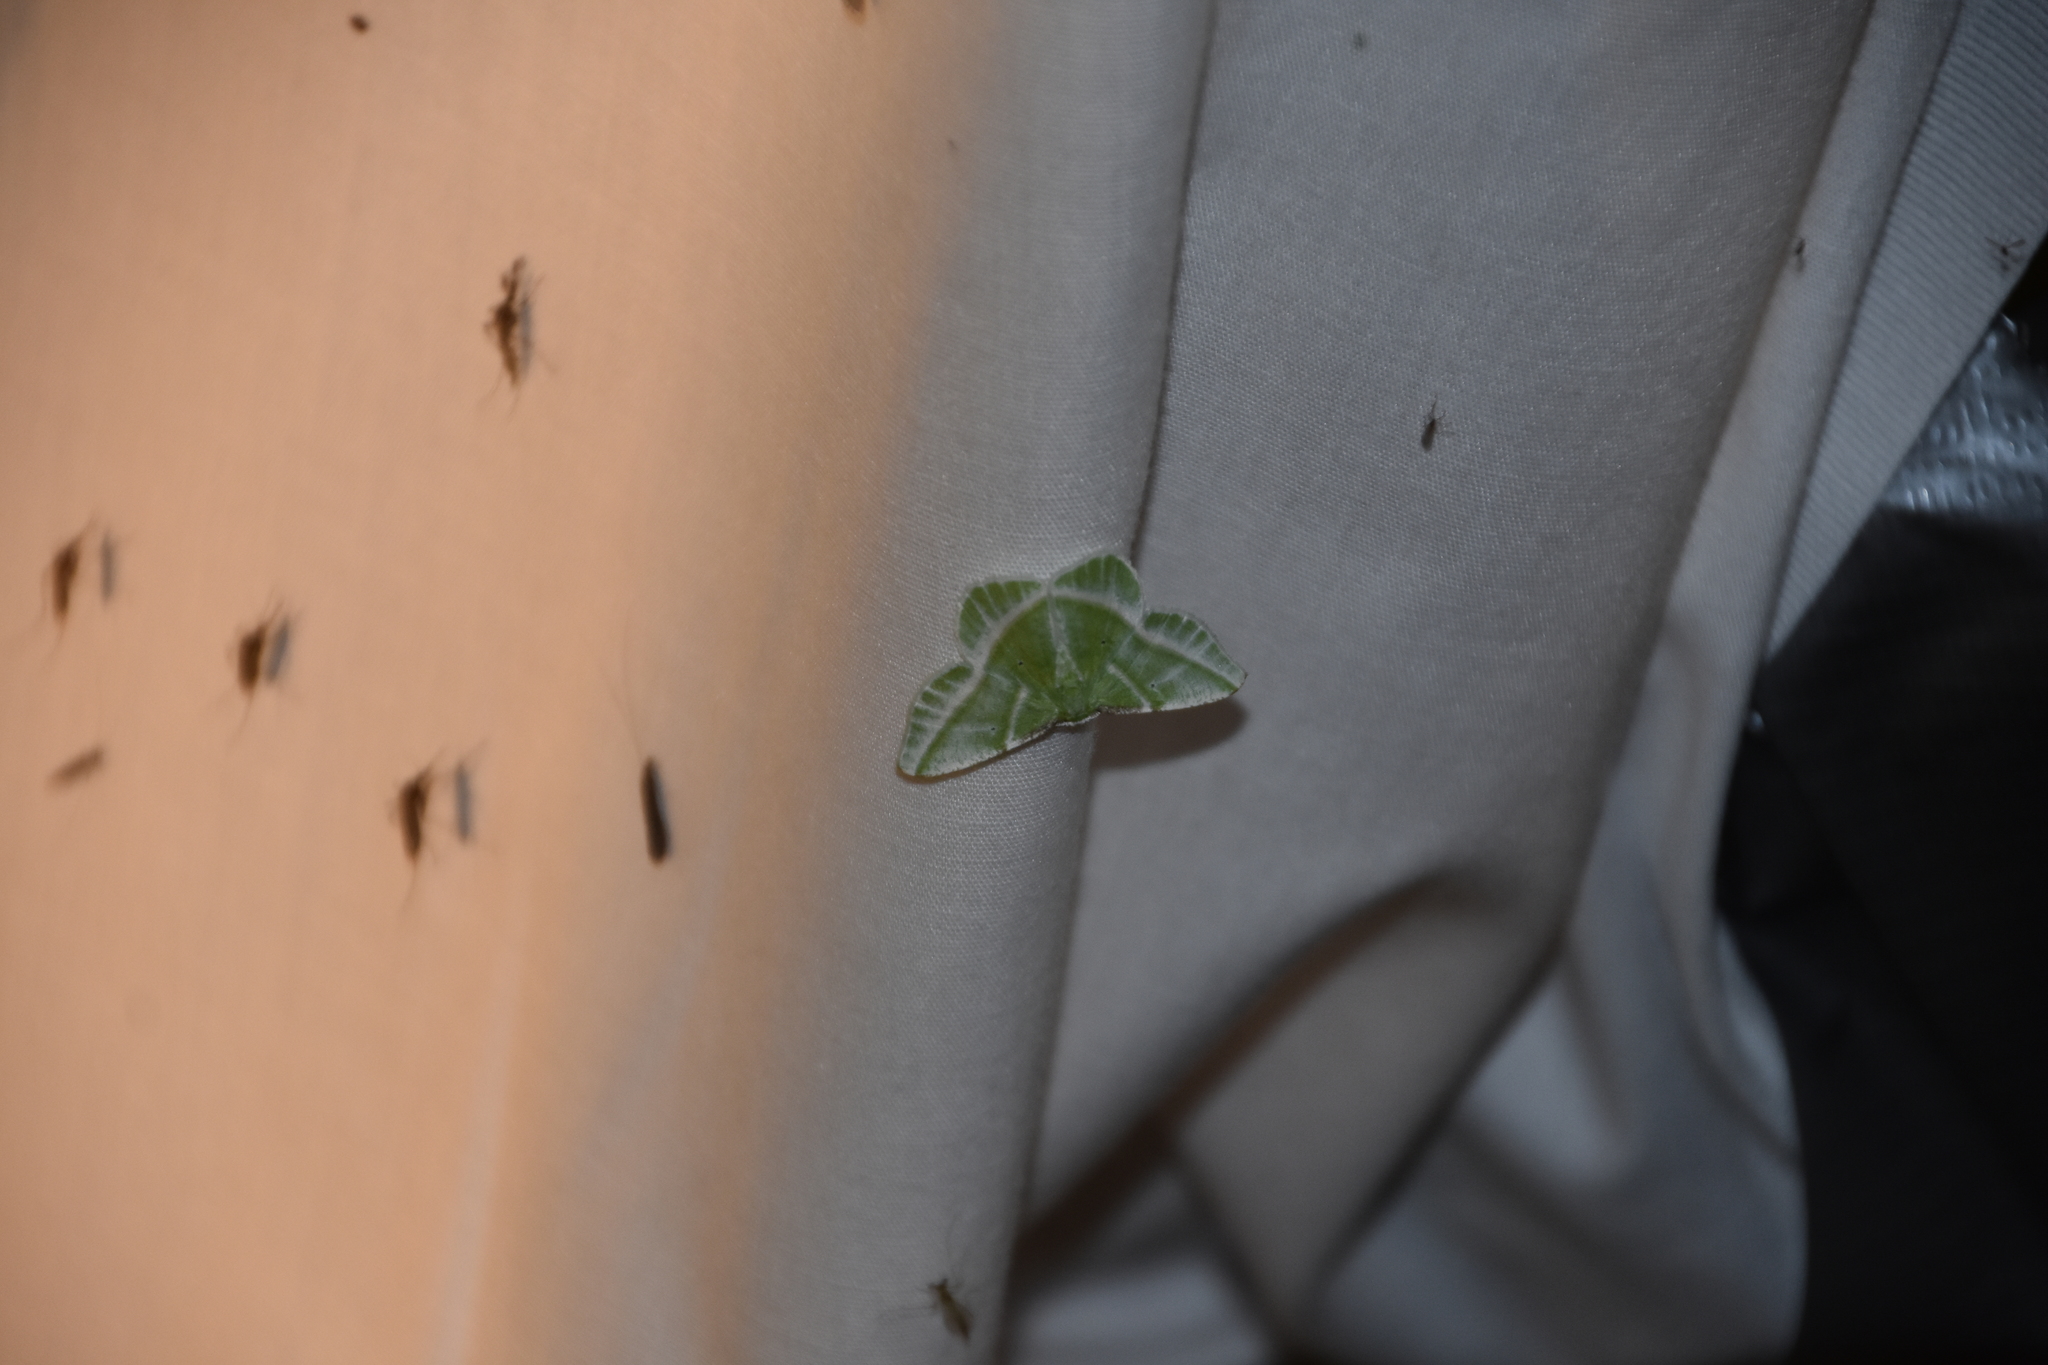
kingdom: Animalia
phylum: Arthropoda
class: Insecta
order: Lepidoptera
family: Geometridae
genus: Dichorda
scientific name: Dichorda iridaria
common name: Showy emerald
